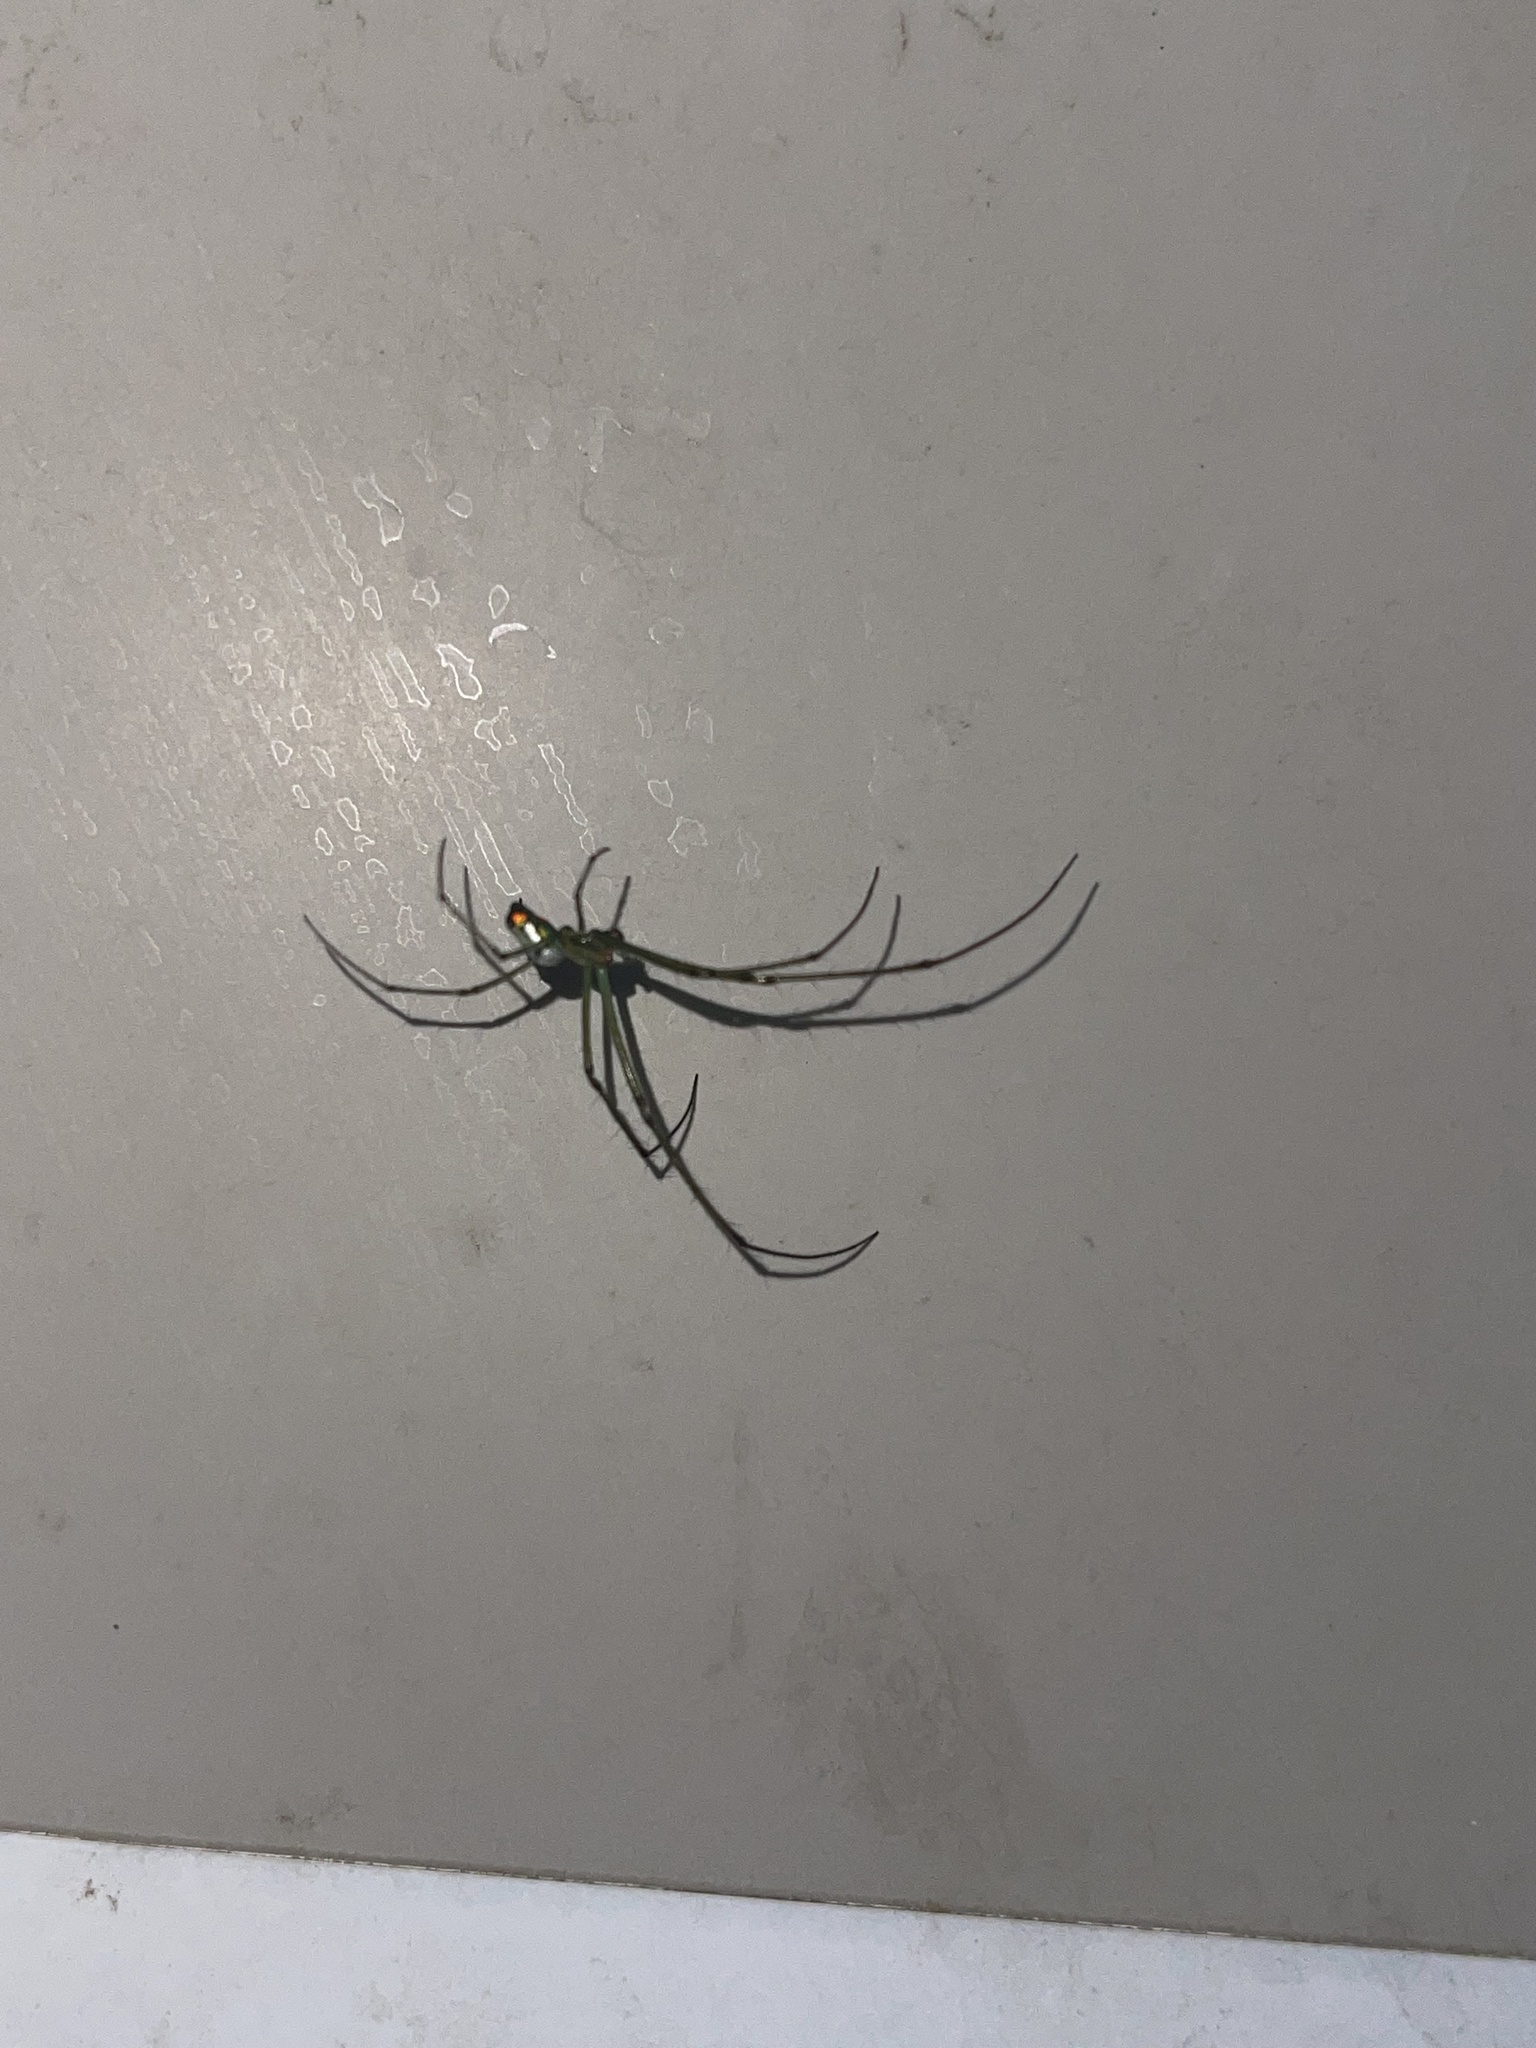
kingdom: Animalia
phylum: Arthropoda
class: Arachnida
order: Araneae
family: Tetragnathidae
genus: Leucauge
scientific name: Leucauge argyrobapta
